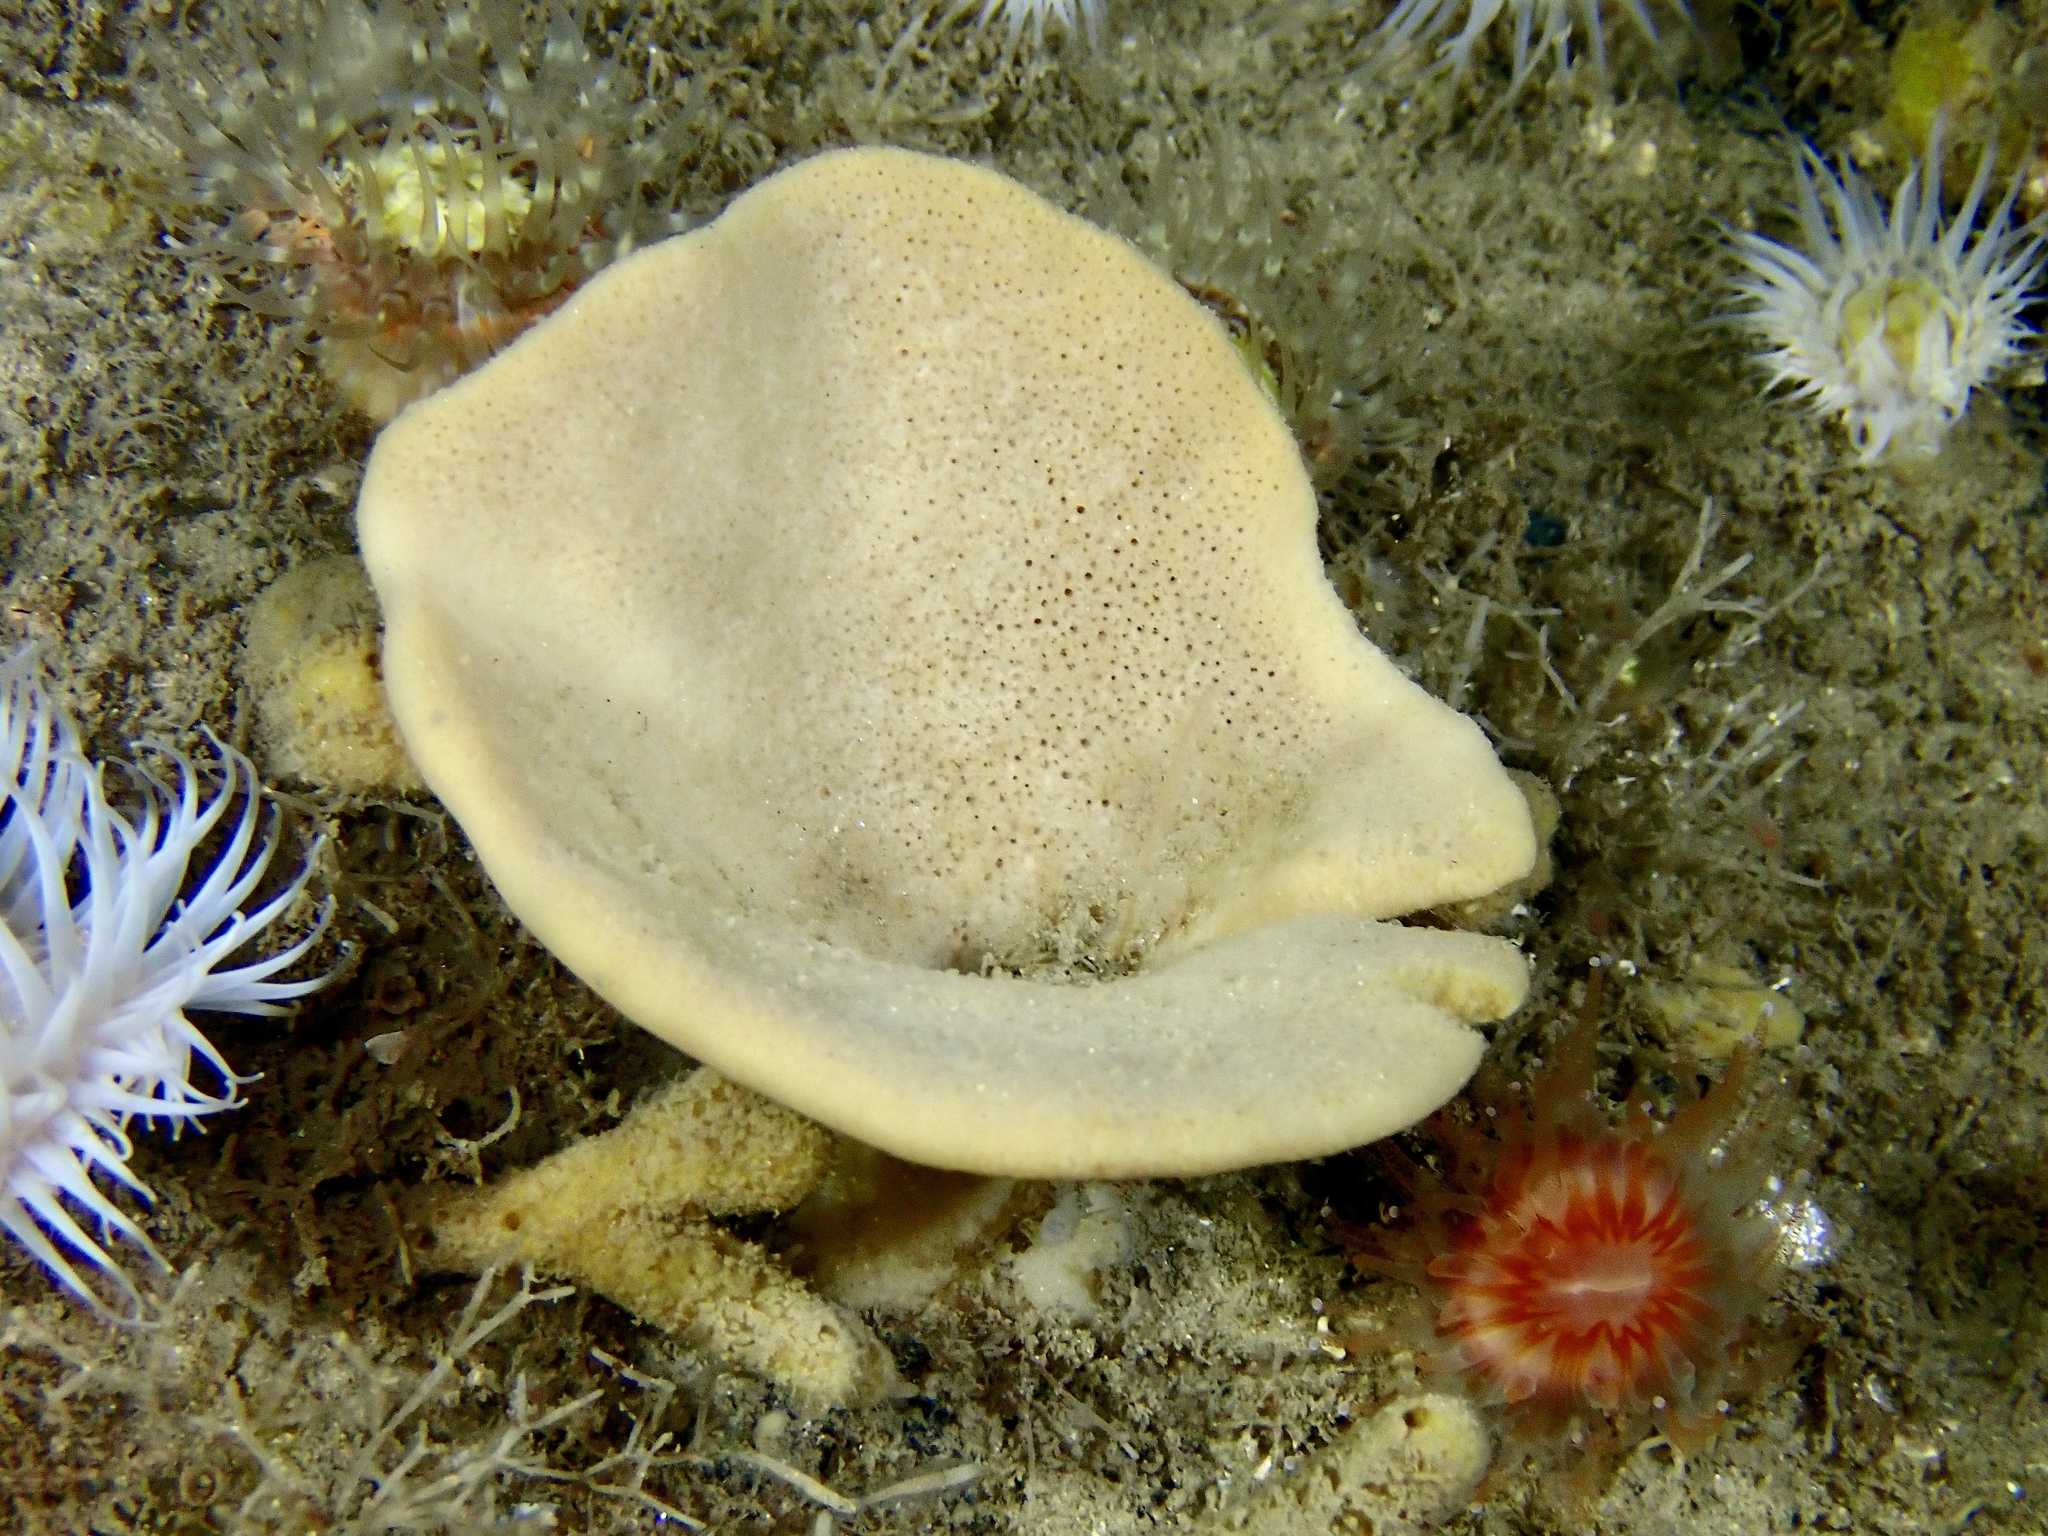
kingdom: Animalia
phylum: Porifera
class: Demospongiae
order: Axinellida
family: Axinellidae
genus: Axinella
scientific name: Axinella infundibuliformis
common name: North atlantic cup sponge
